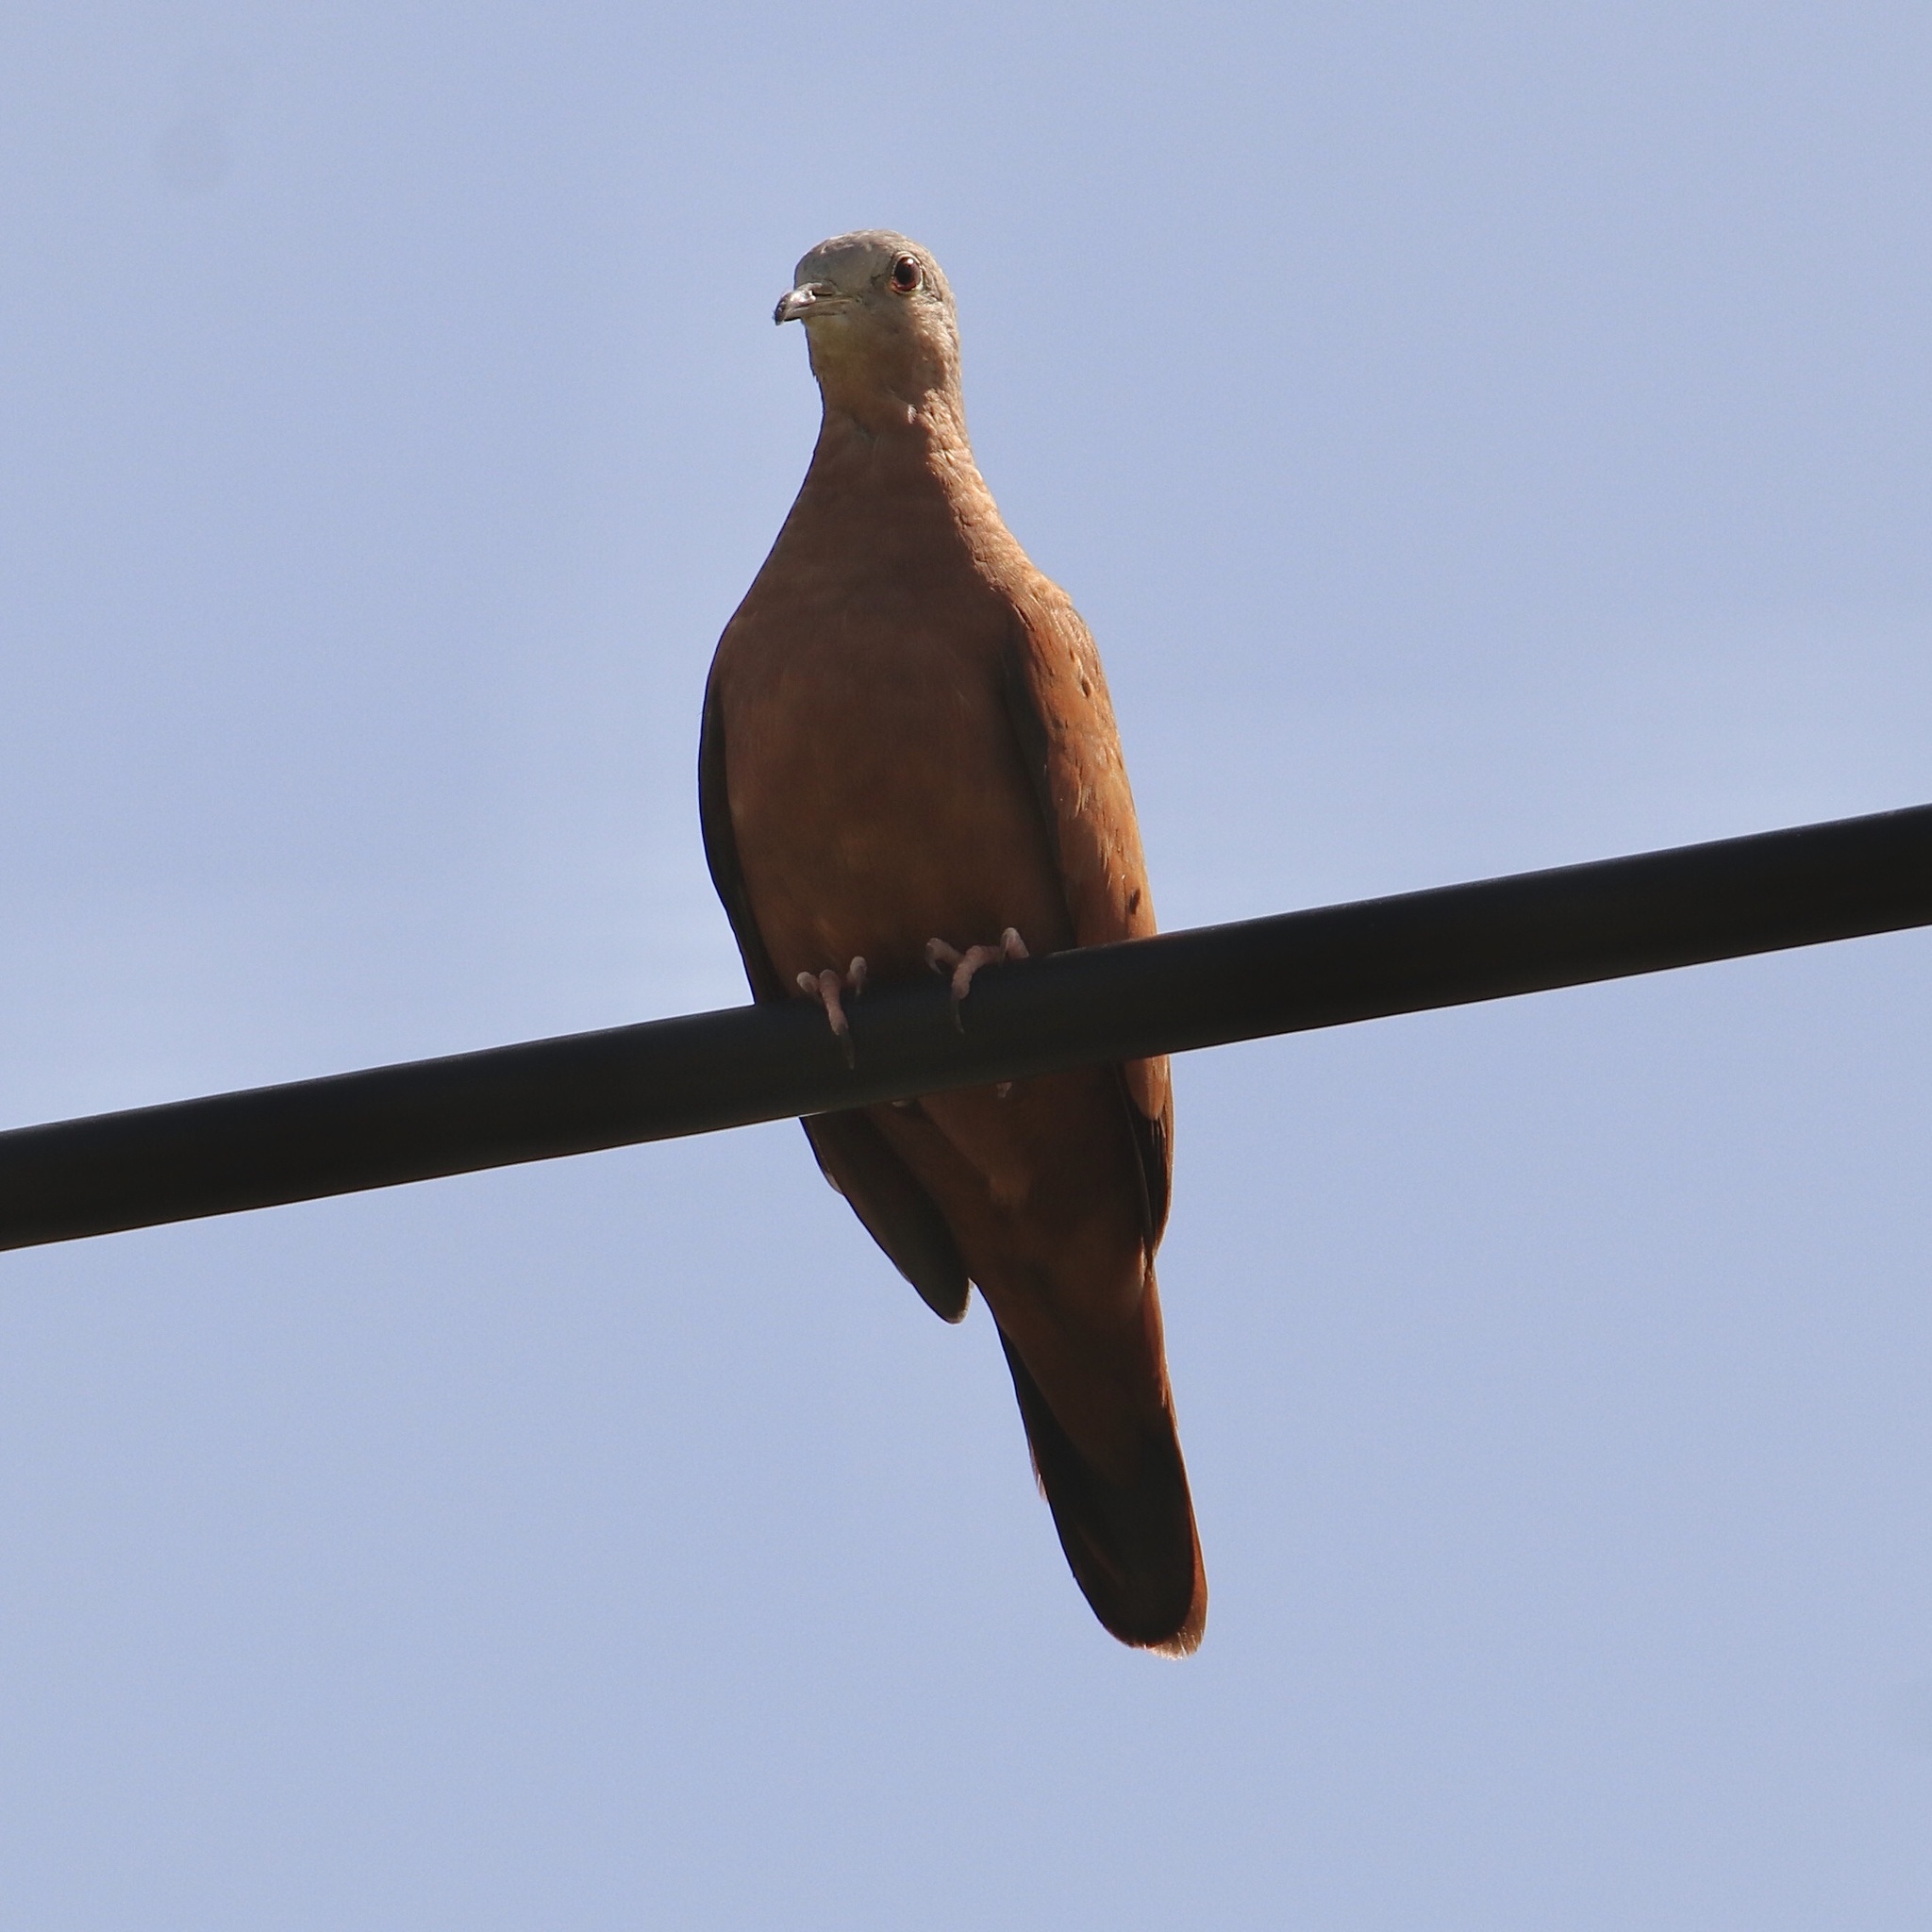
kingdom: Animalia
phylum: Chordata
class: Aves
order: Columbiformes
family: Columbidae
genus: Columbina
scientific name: Columbina talpacoti
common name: Ruddy ground dove
